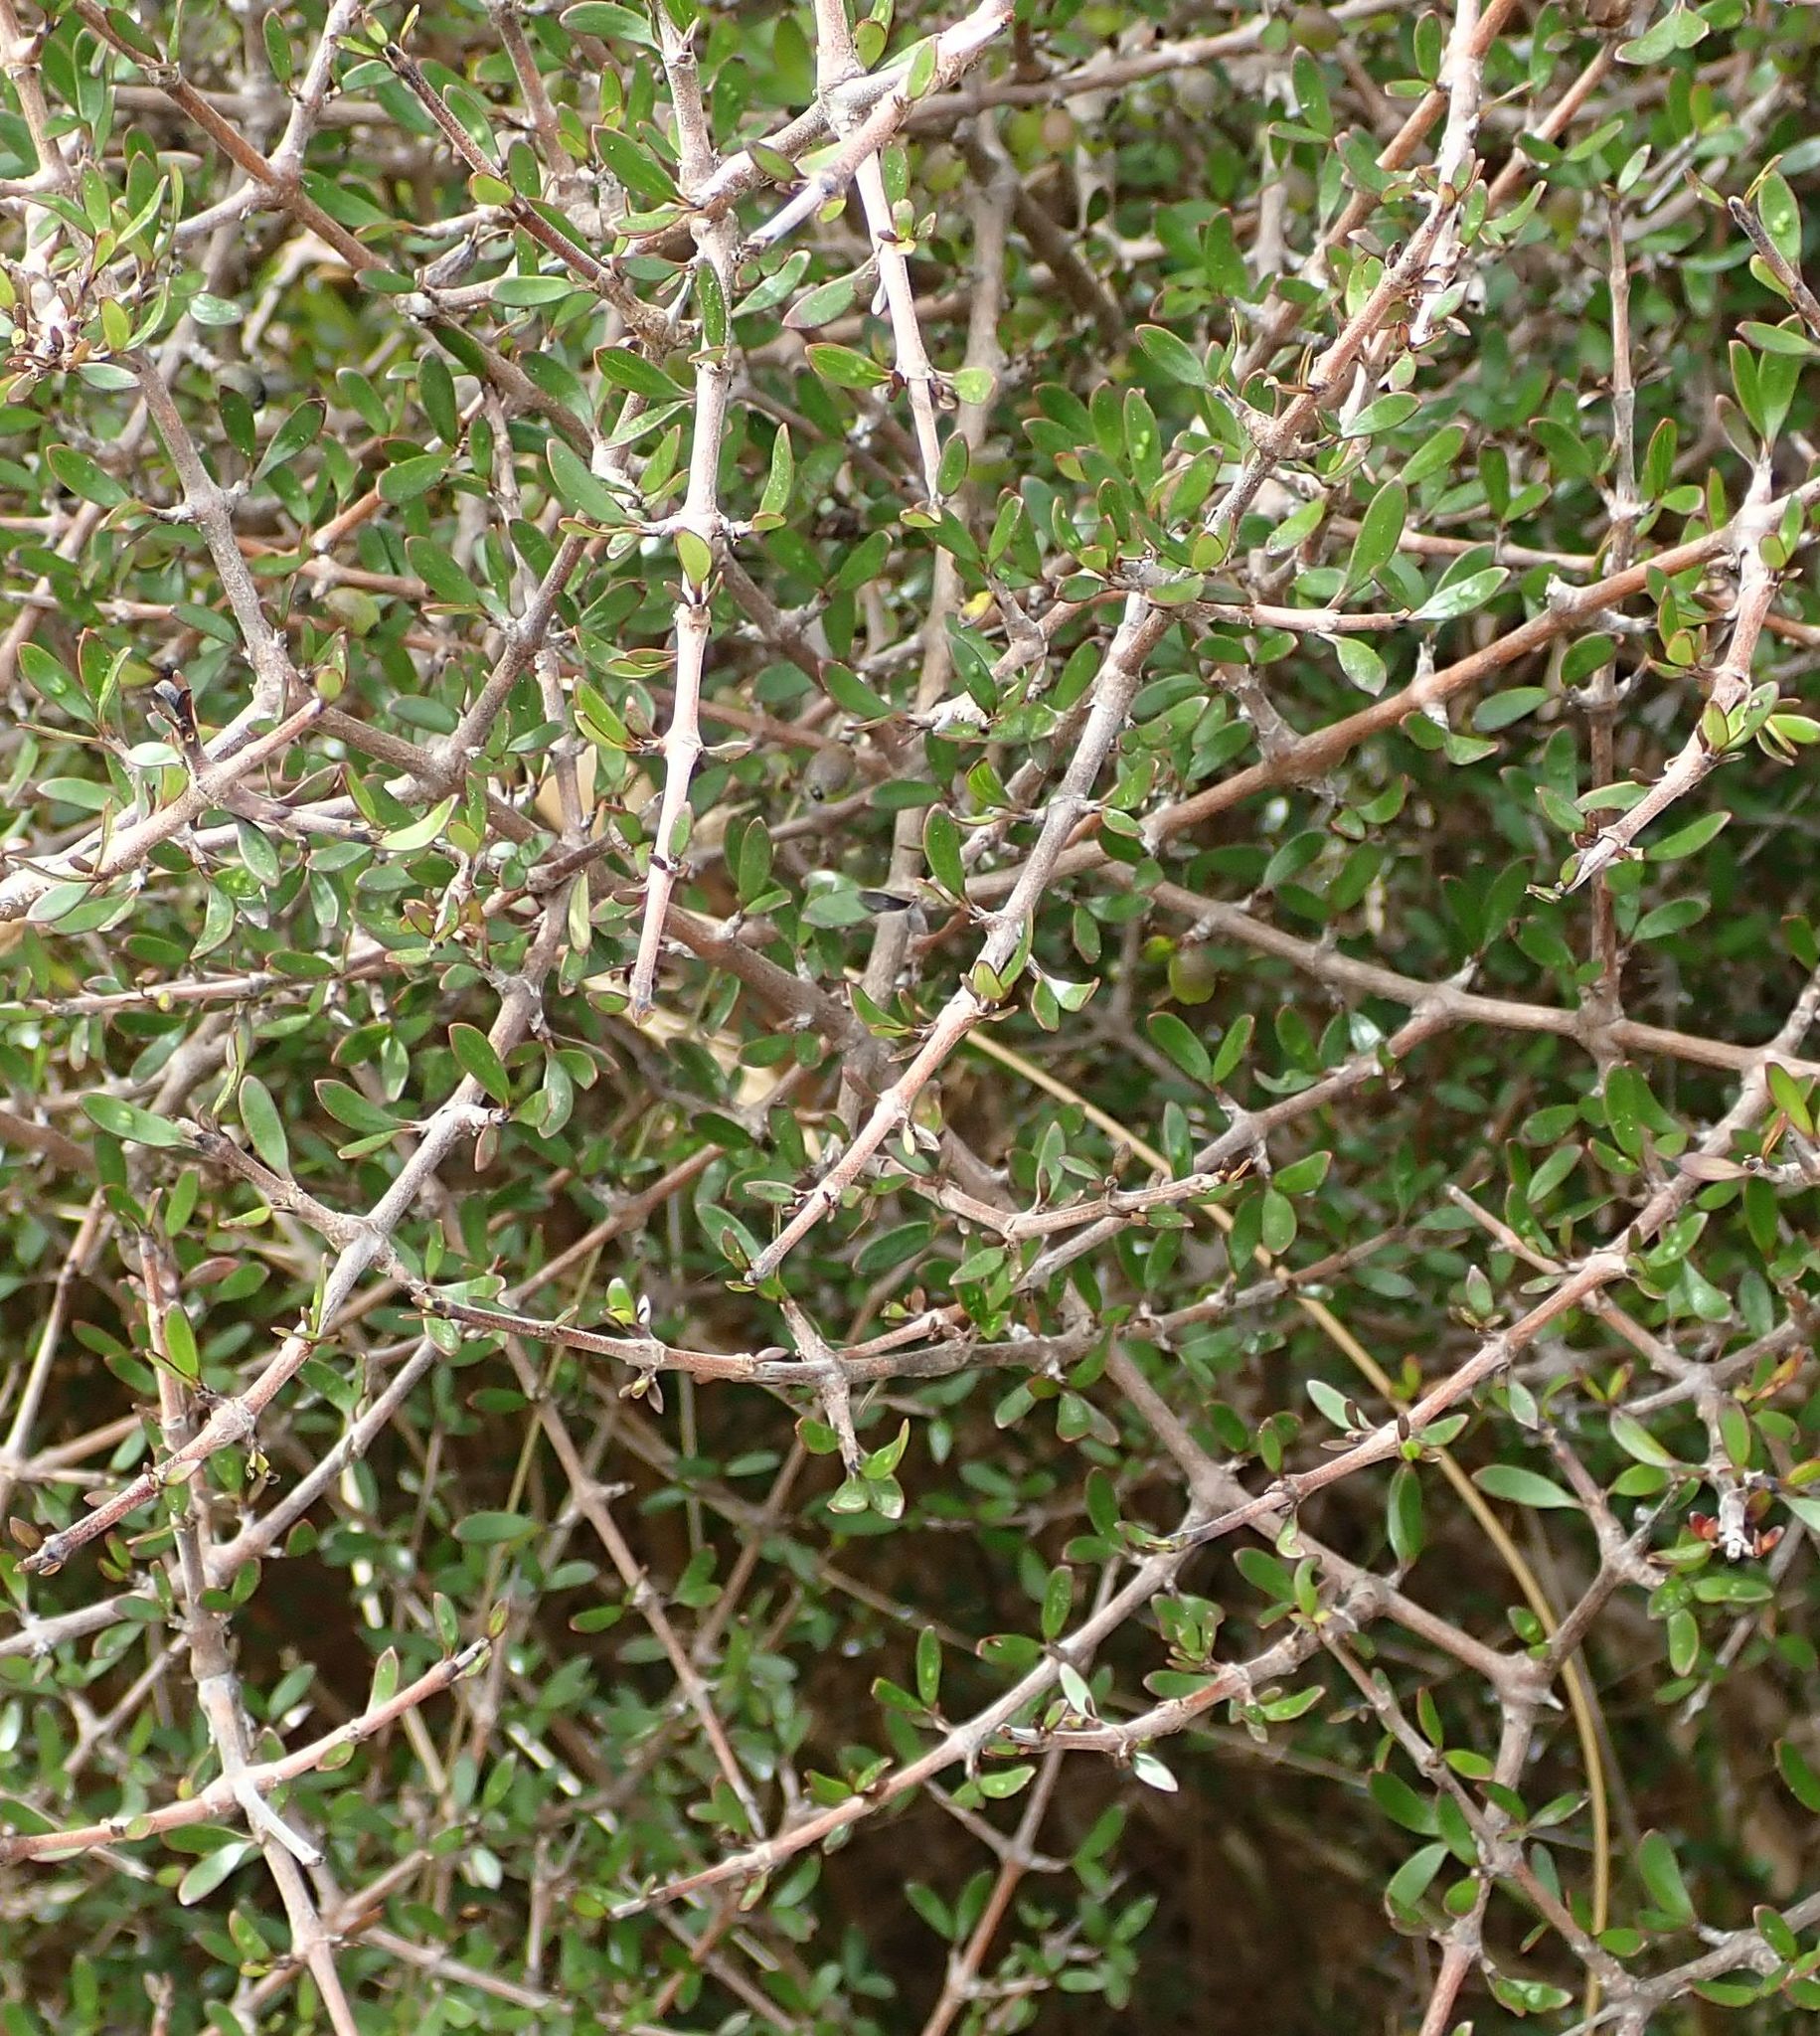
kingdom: Plantae
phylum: Tracheophyta
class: Magnoliopsida
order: Gentianales
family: Rubiaceae
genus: Coprosma
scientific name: Coprosma propinqua
